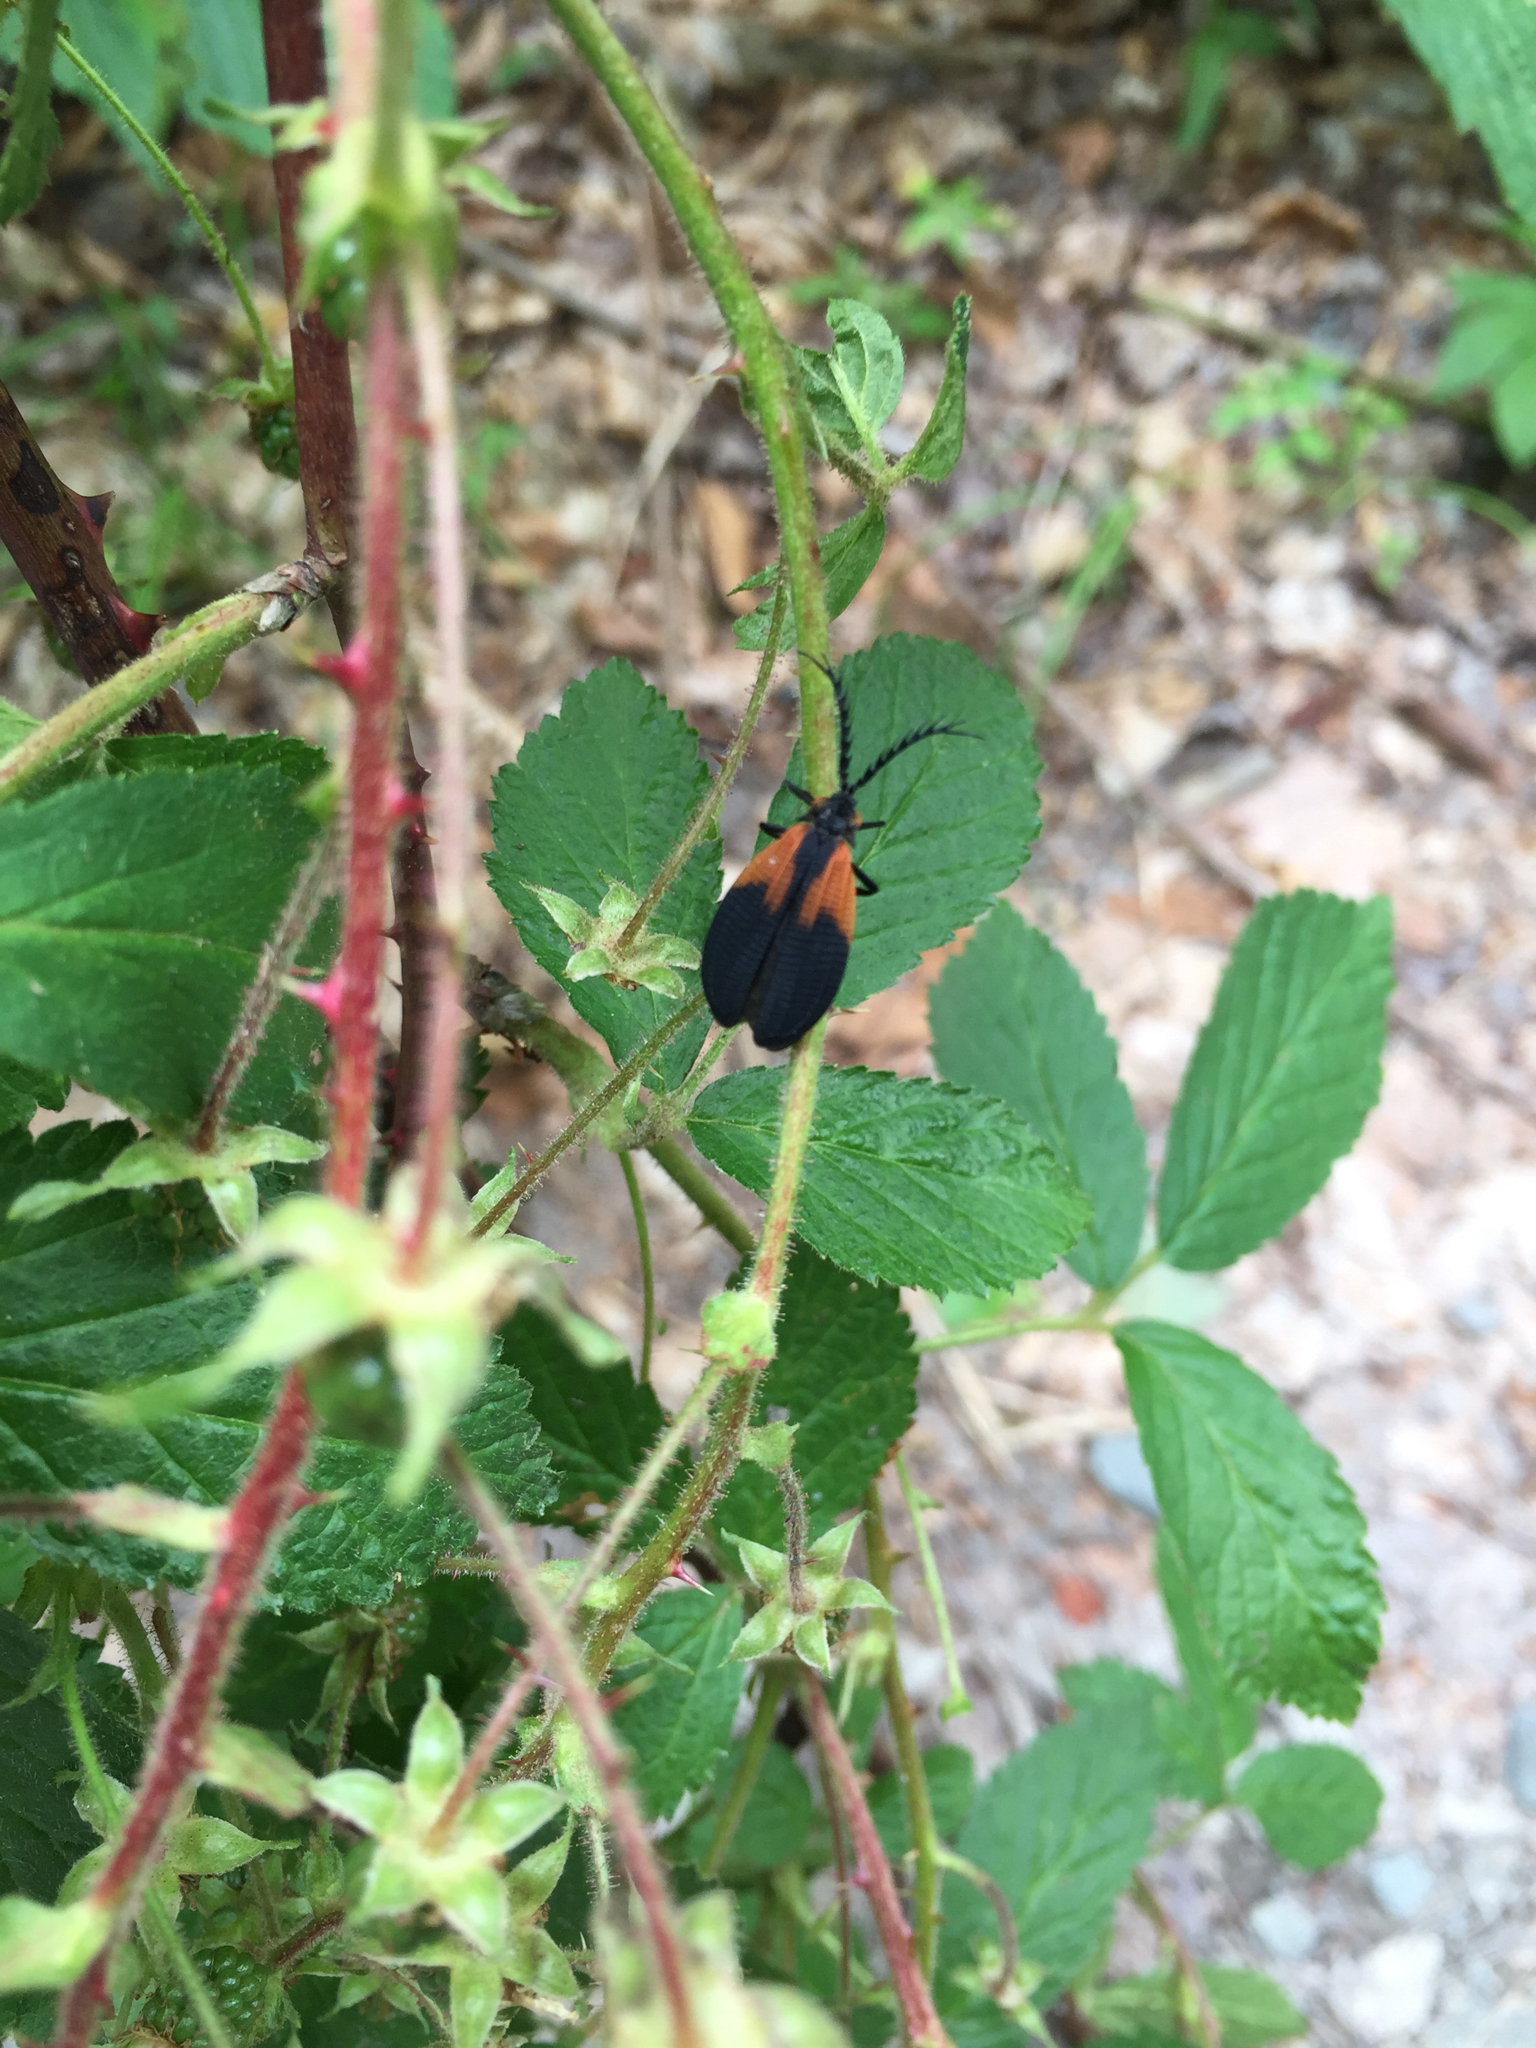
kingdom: Animalia
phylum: Arthropoda
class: Insecta
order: Coleoptera
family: Lycidae
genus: Caenia
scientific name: Caenia dimidiata
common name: Terminal net-winged beetle
